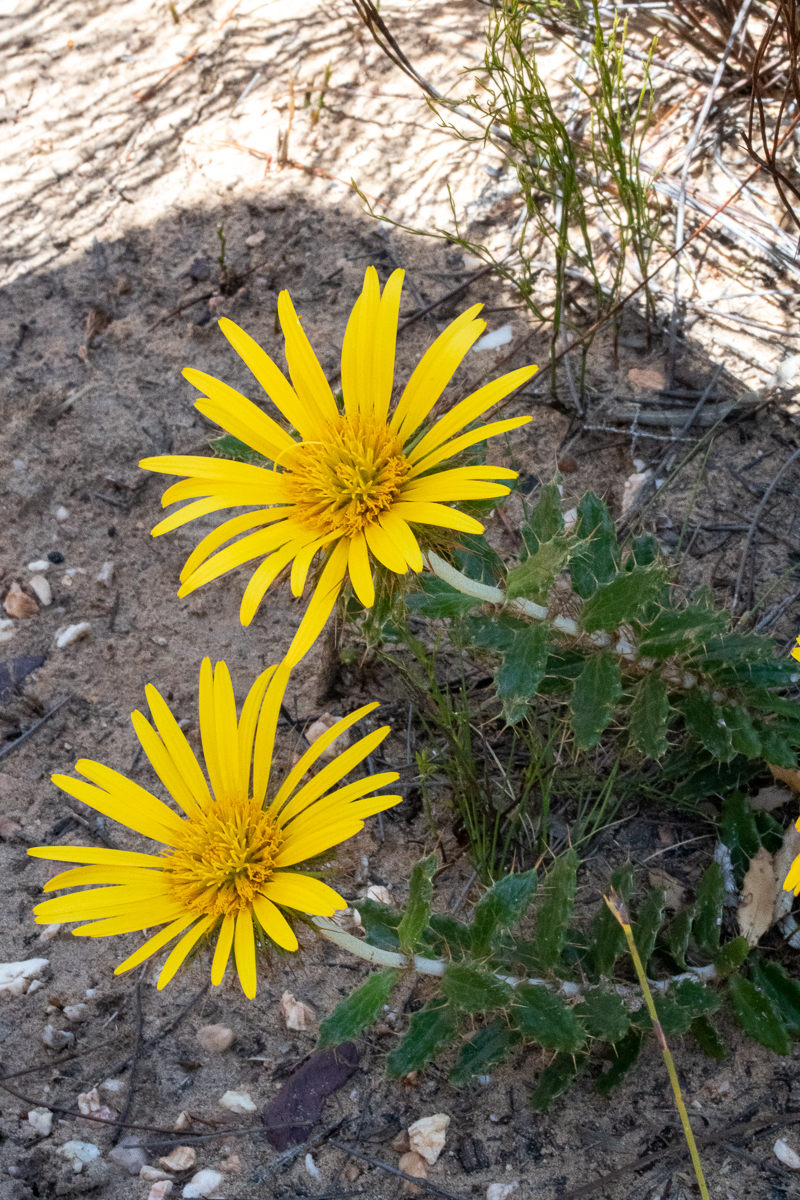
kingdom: Plantae
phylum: Tracheophyta
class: Magnoliopsida
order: Asterales
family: Asteraceae
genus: Berkheya
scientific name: Berkheya barbata
